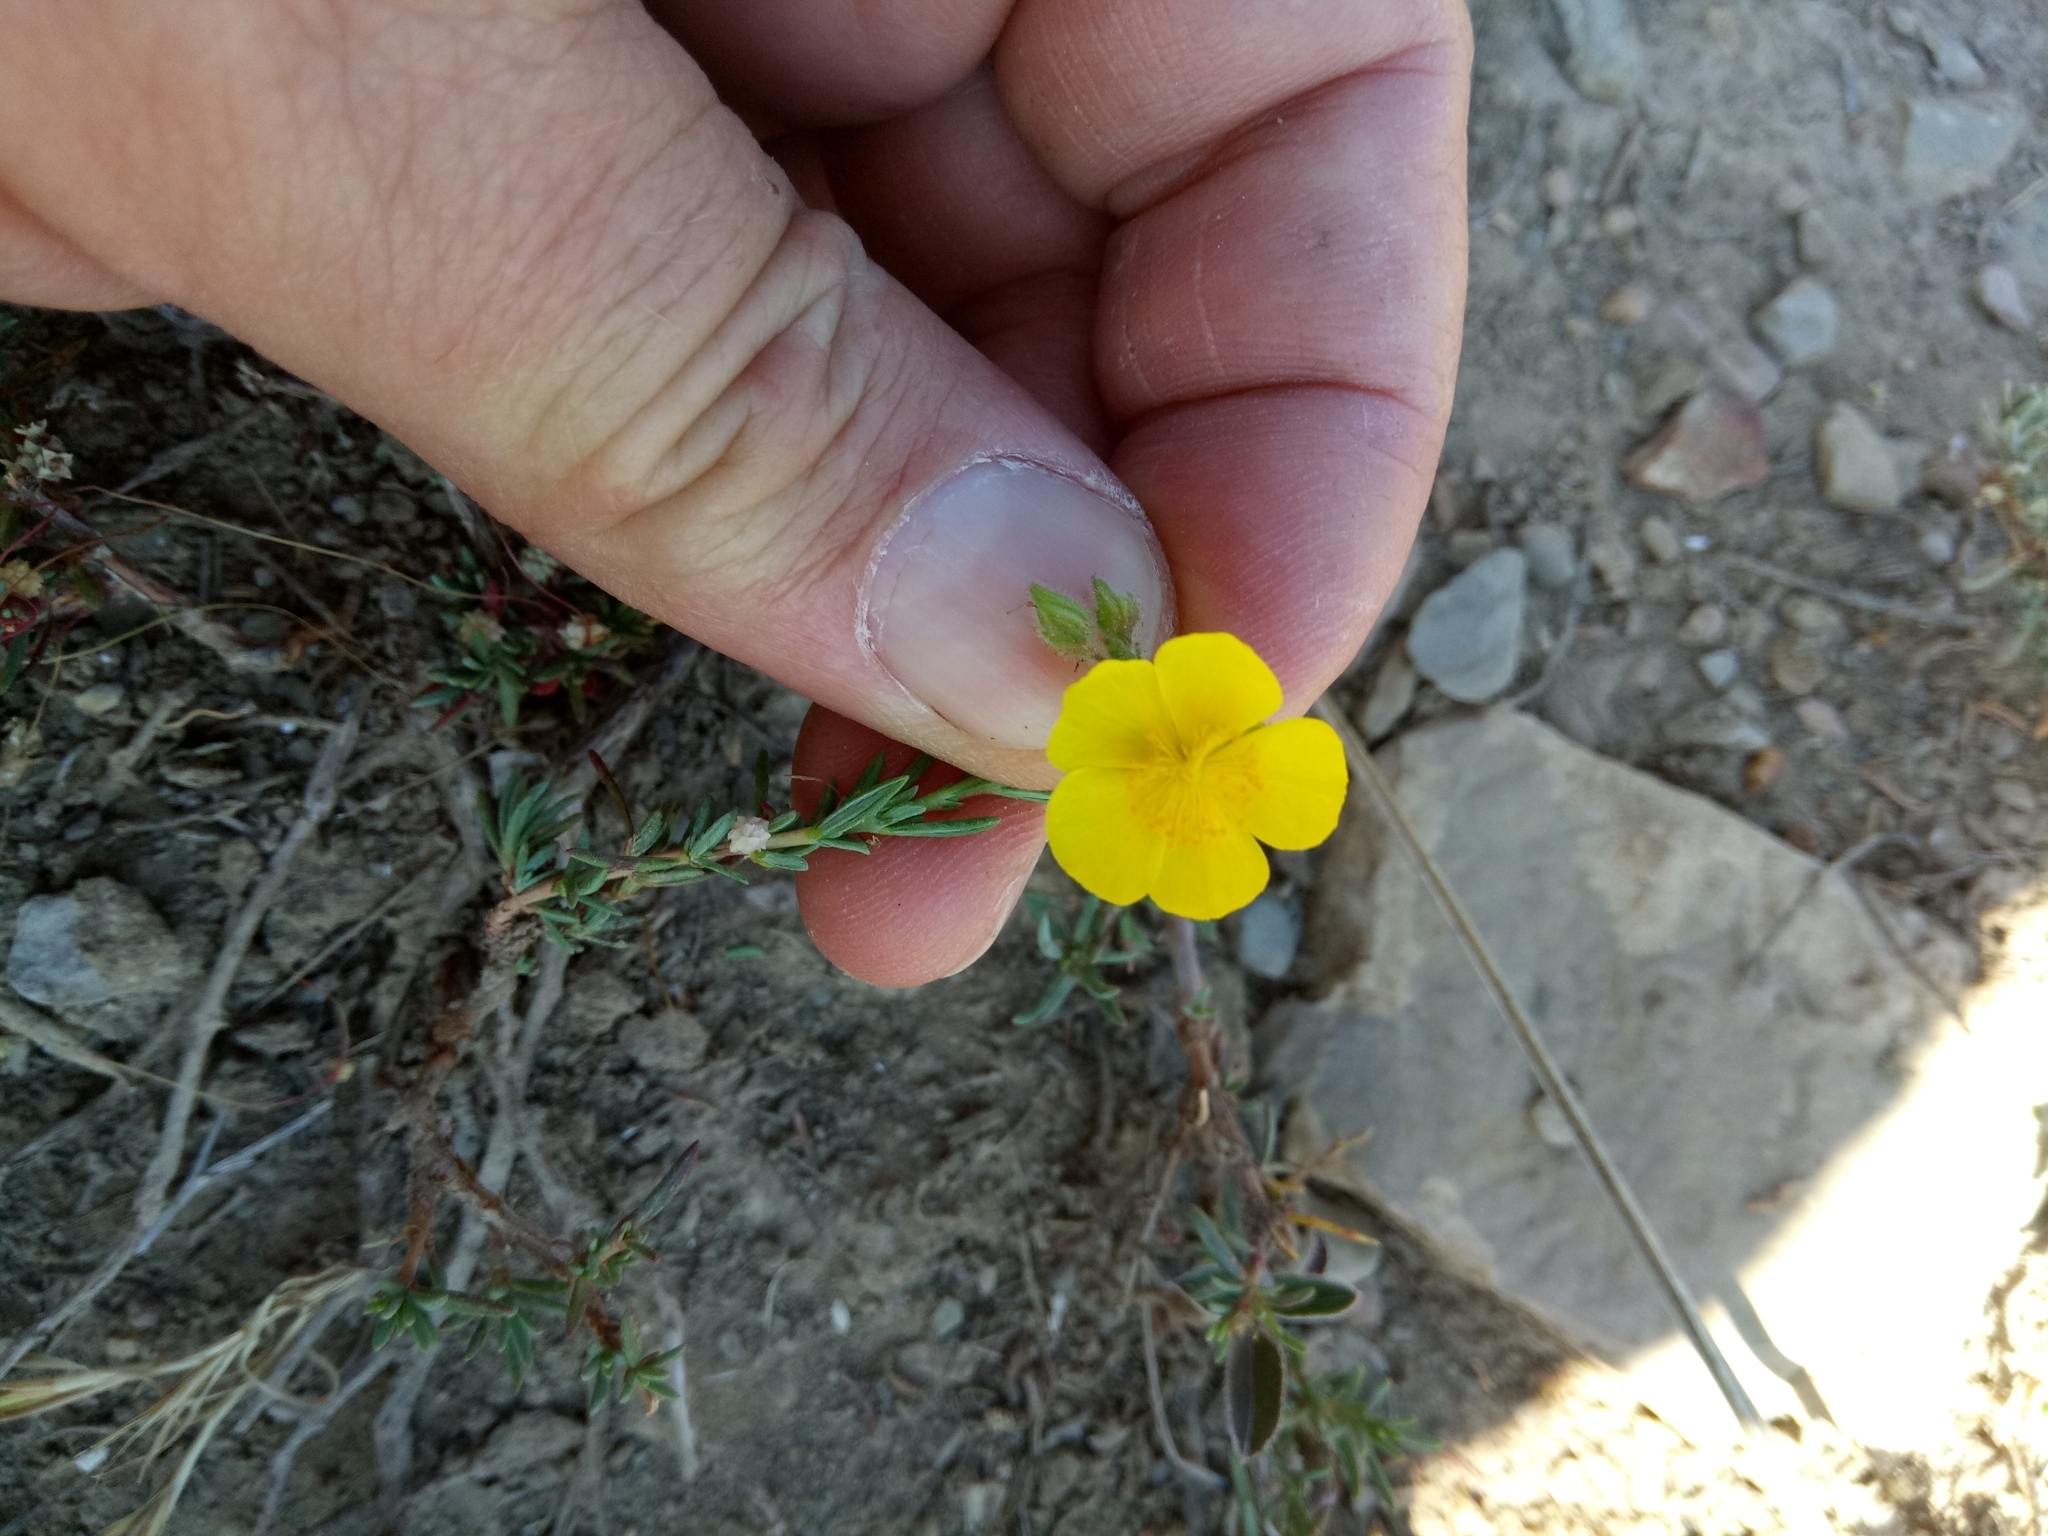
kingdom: Plantae
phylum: Tracheophyta
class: Magnoliopsida
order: Malvales
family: Cistaceae
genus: Fumana
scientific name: Fumana laevis
